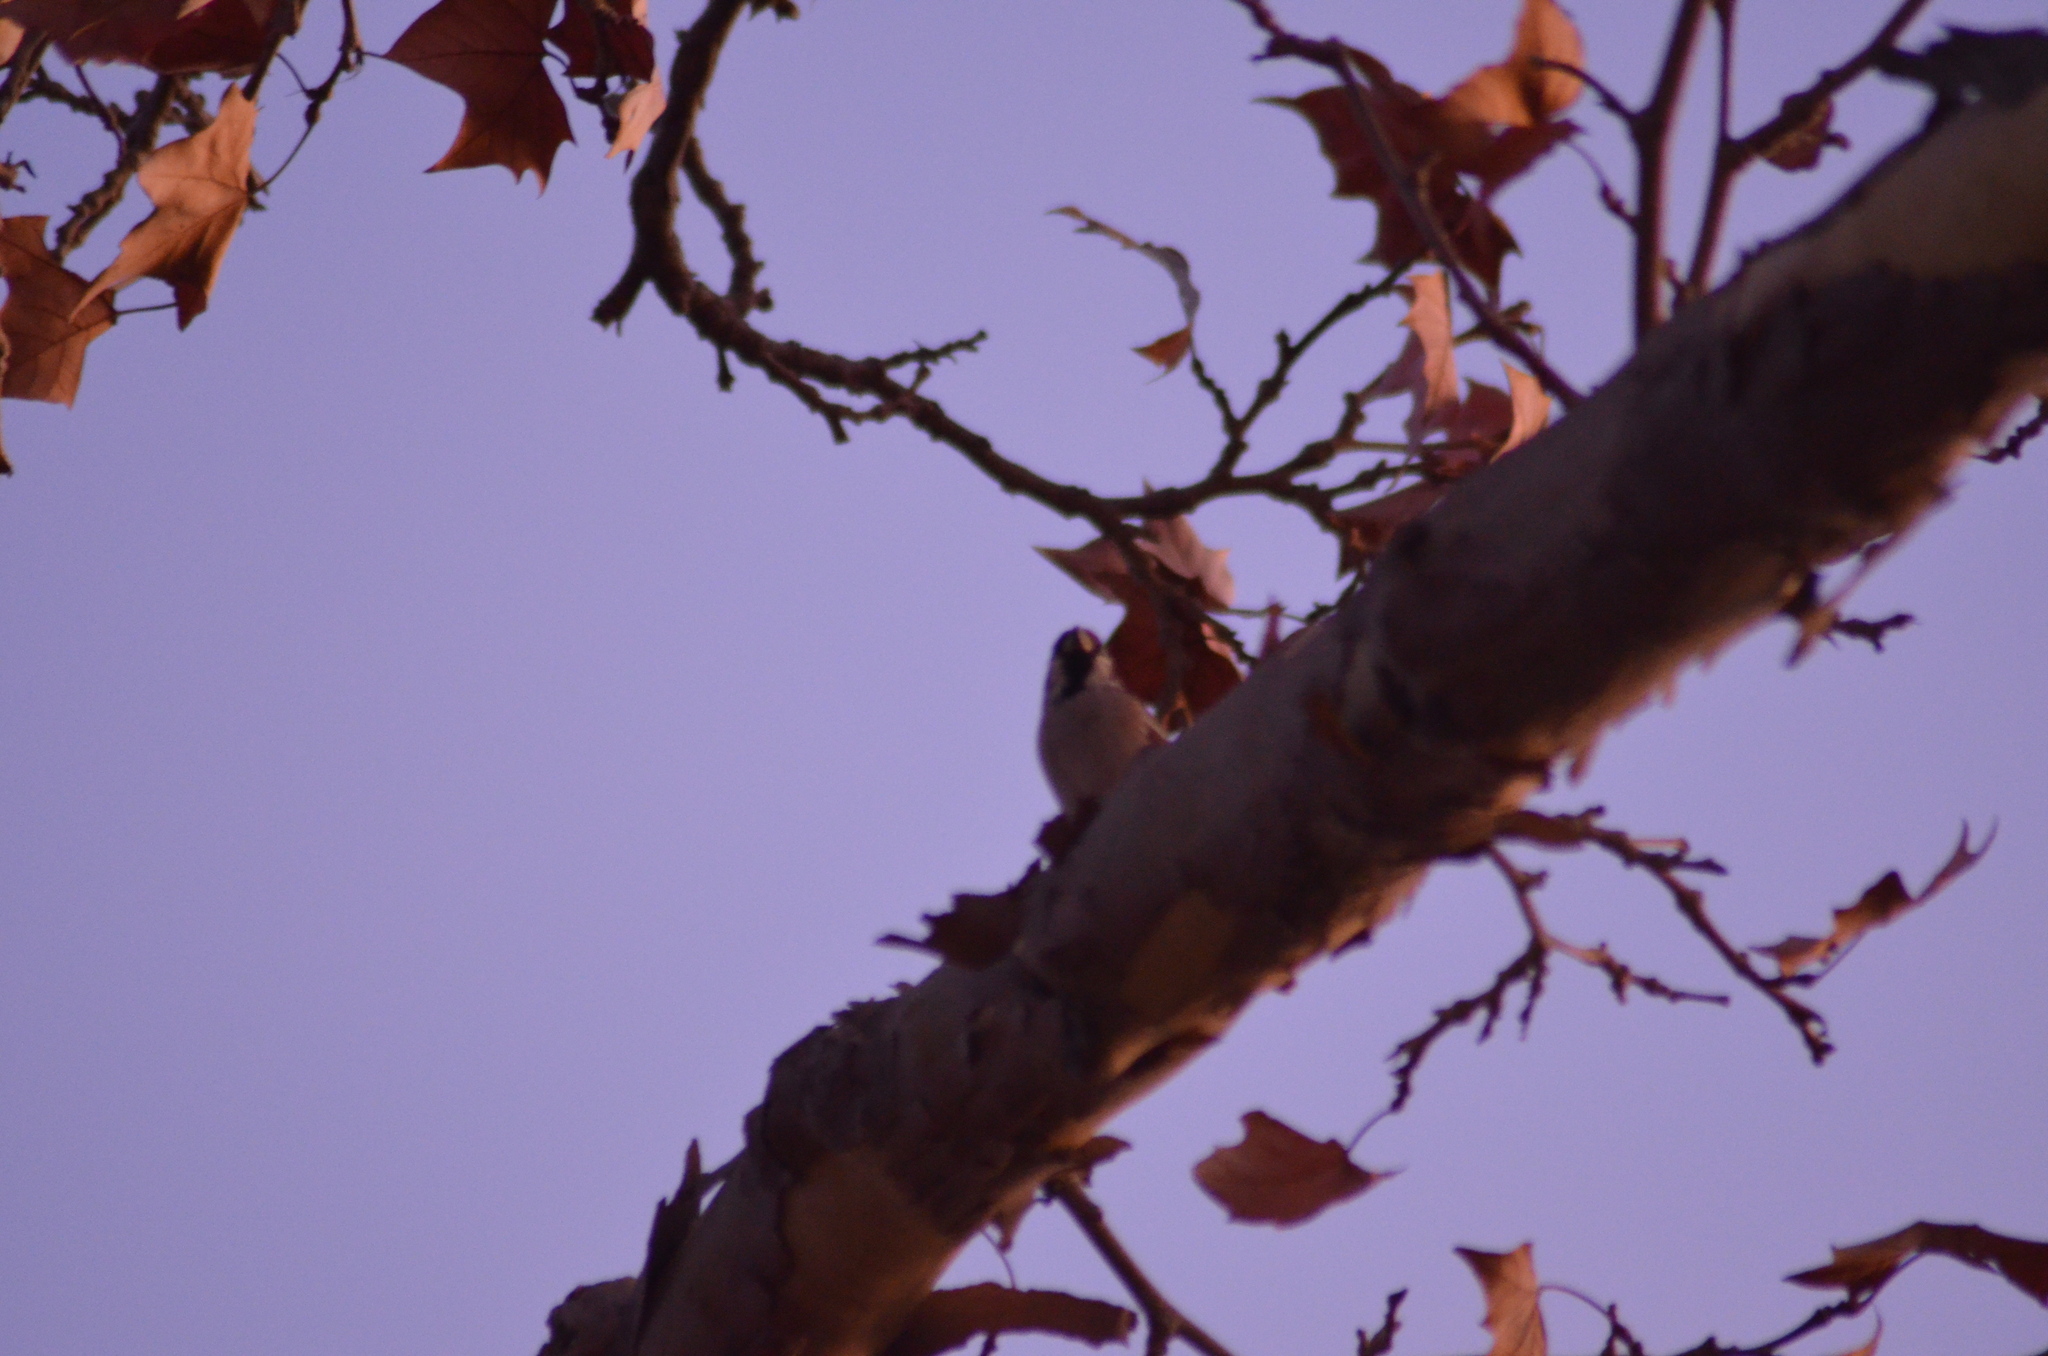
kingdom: Animalia
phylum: Chordata
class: Aves
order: Passeriformes
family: Passeridae
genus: Passer
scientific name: Passer montanus
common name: Eurasian tree sparrow
